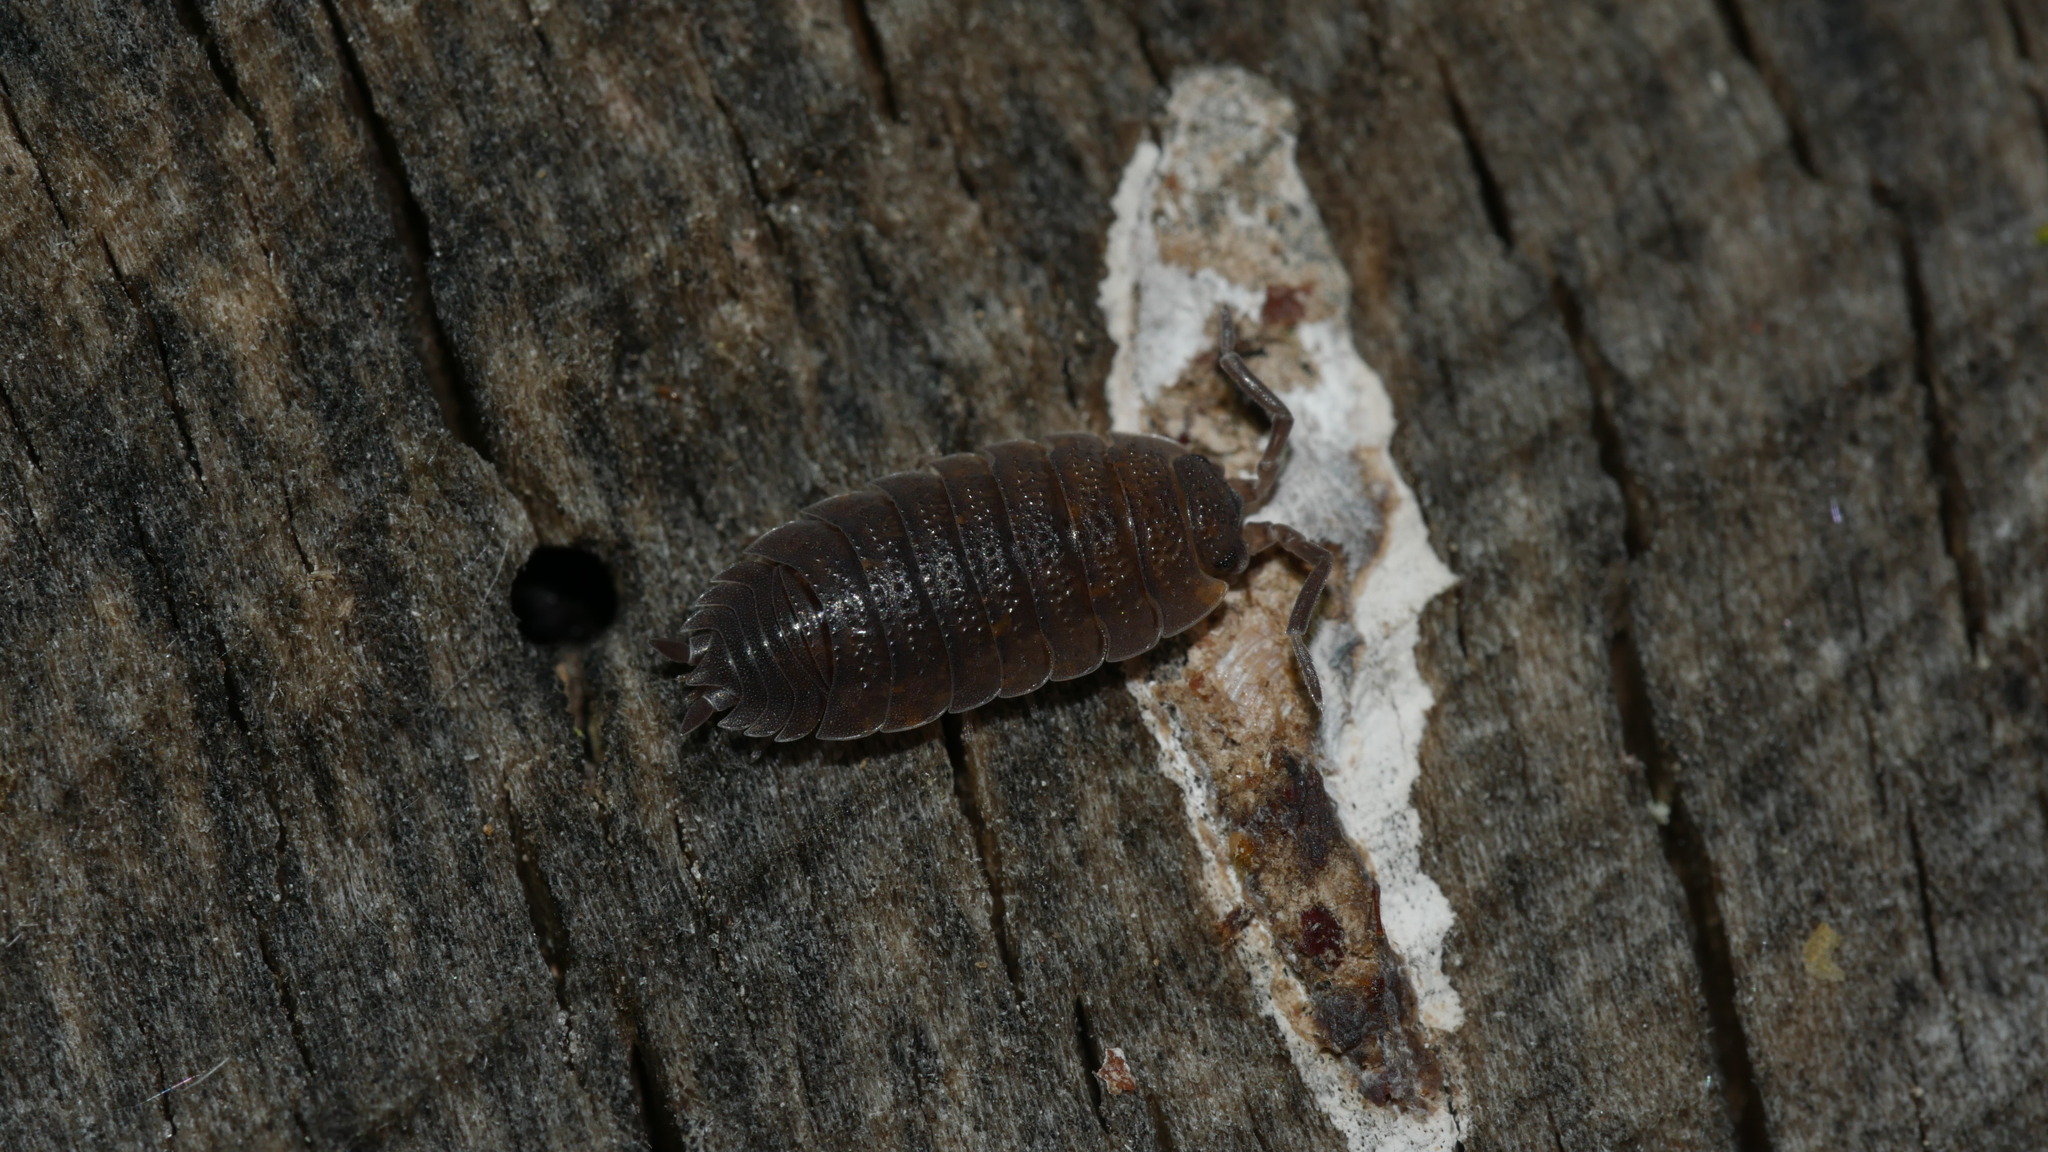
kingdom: Animalia
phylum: Arthropoda
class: Malacostraca
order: Isopoda
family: Porcellionidae
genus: Porcellio
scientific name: Porcellio scaber
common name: Common rough woodlouse
